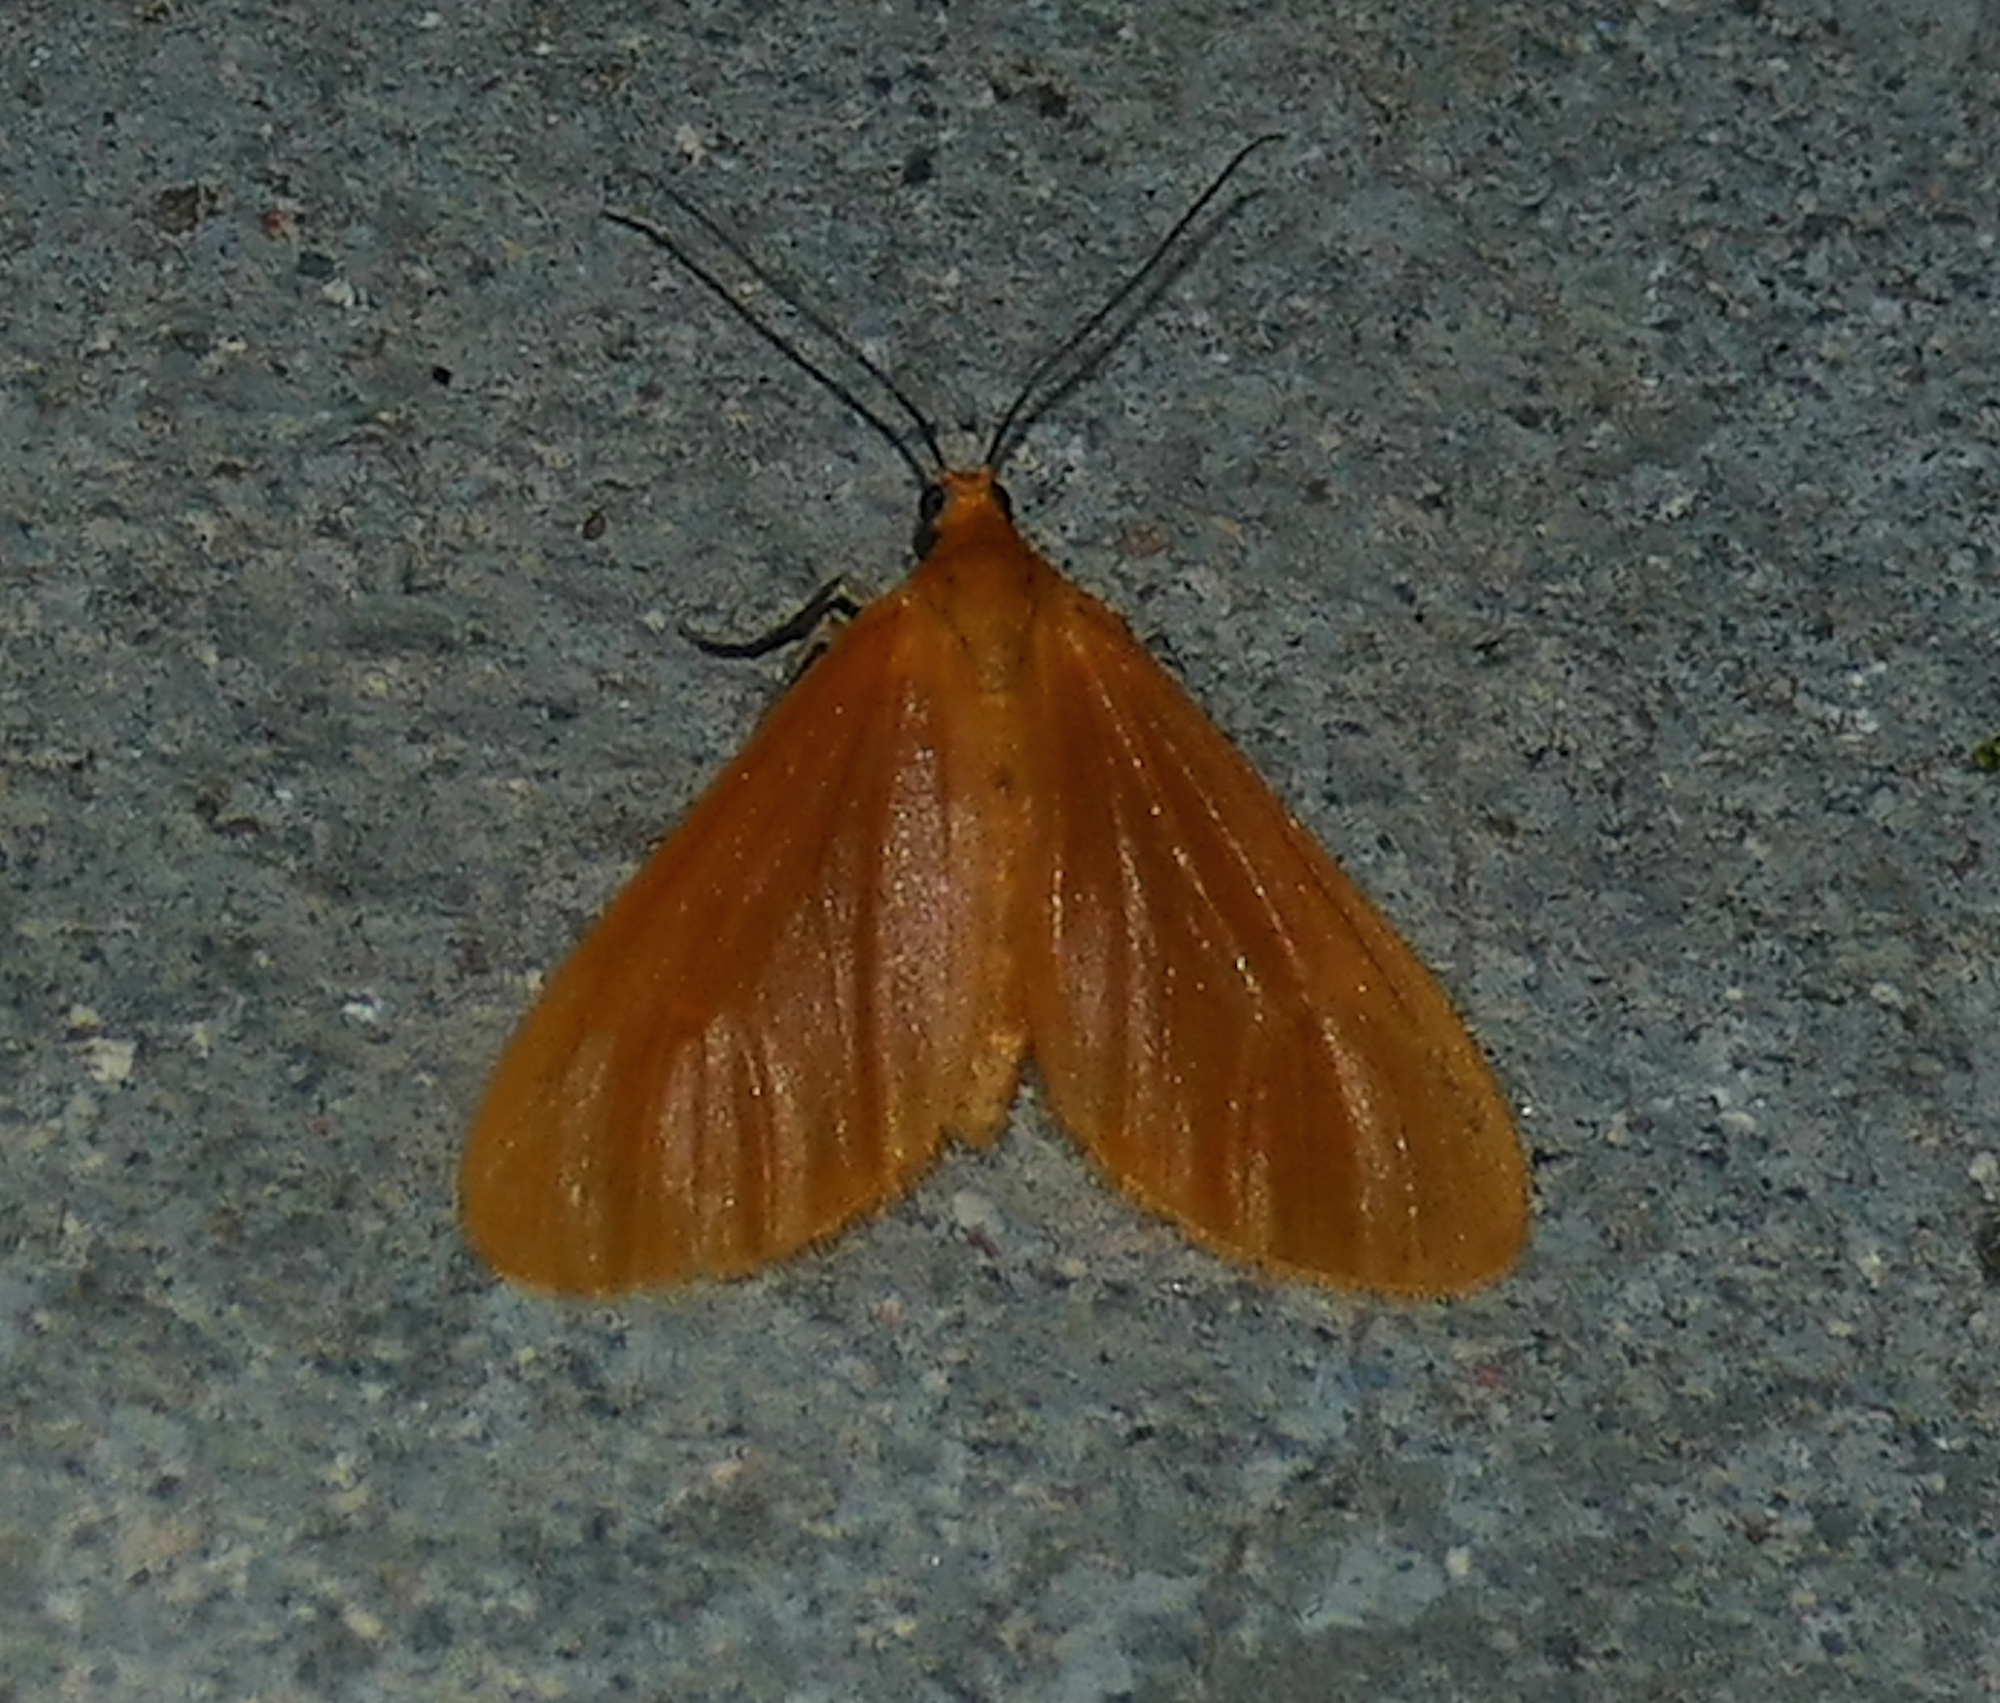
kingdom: Animalia
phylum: Arthropoda
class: Insecta
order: Lepidoptera
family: Geometridae
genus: Eubaphe
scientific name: Eubaphe unicolor
